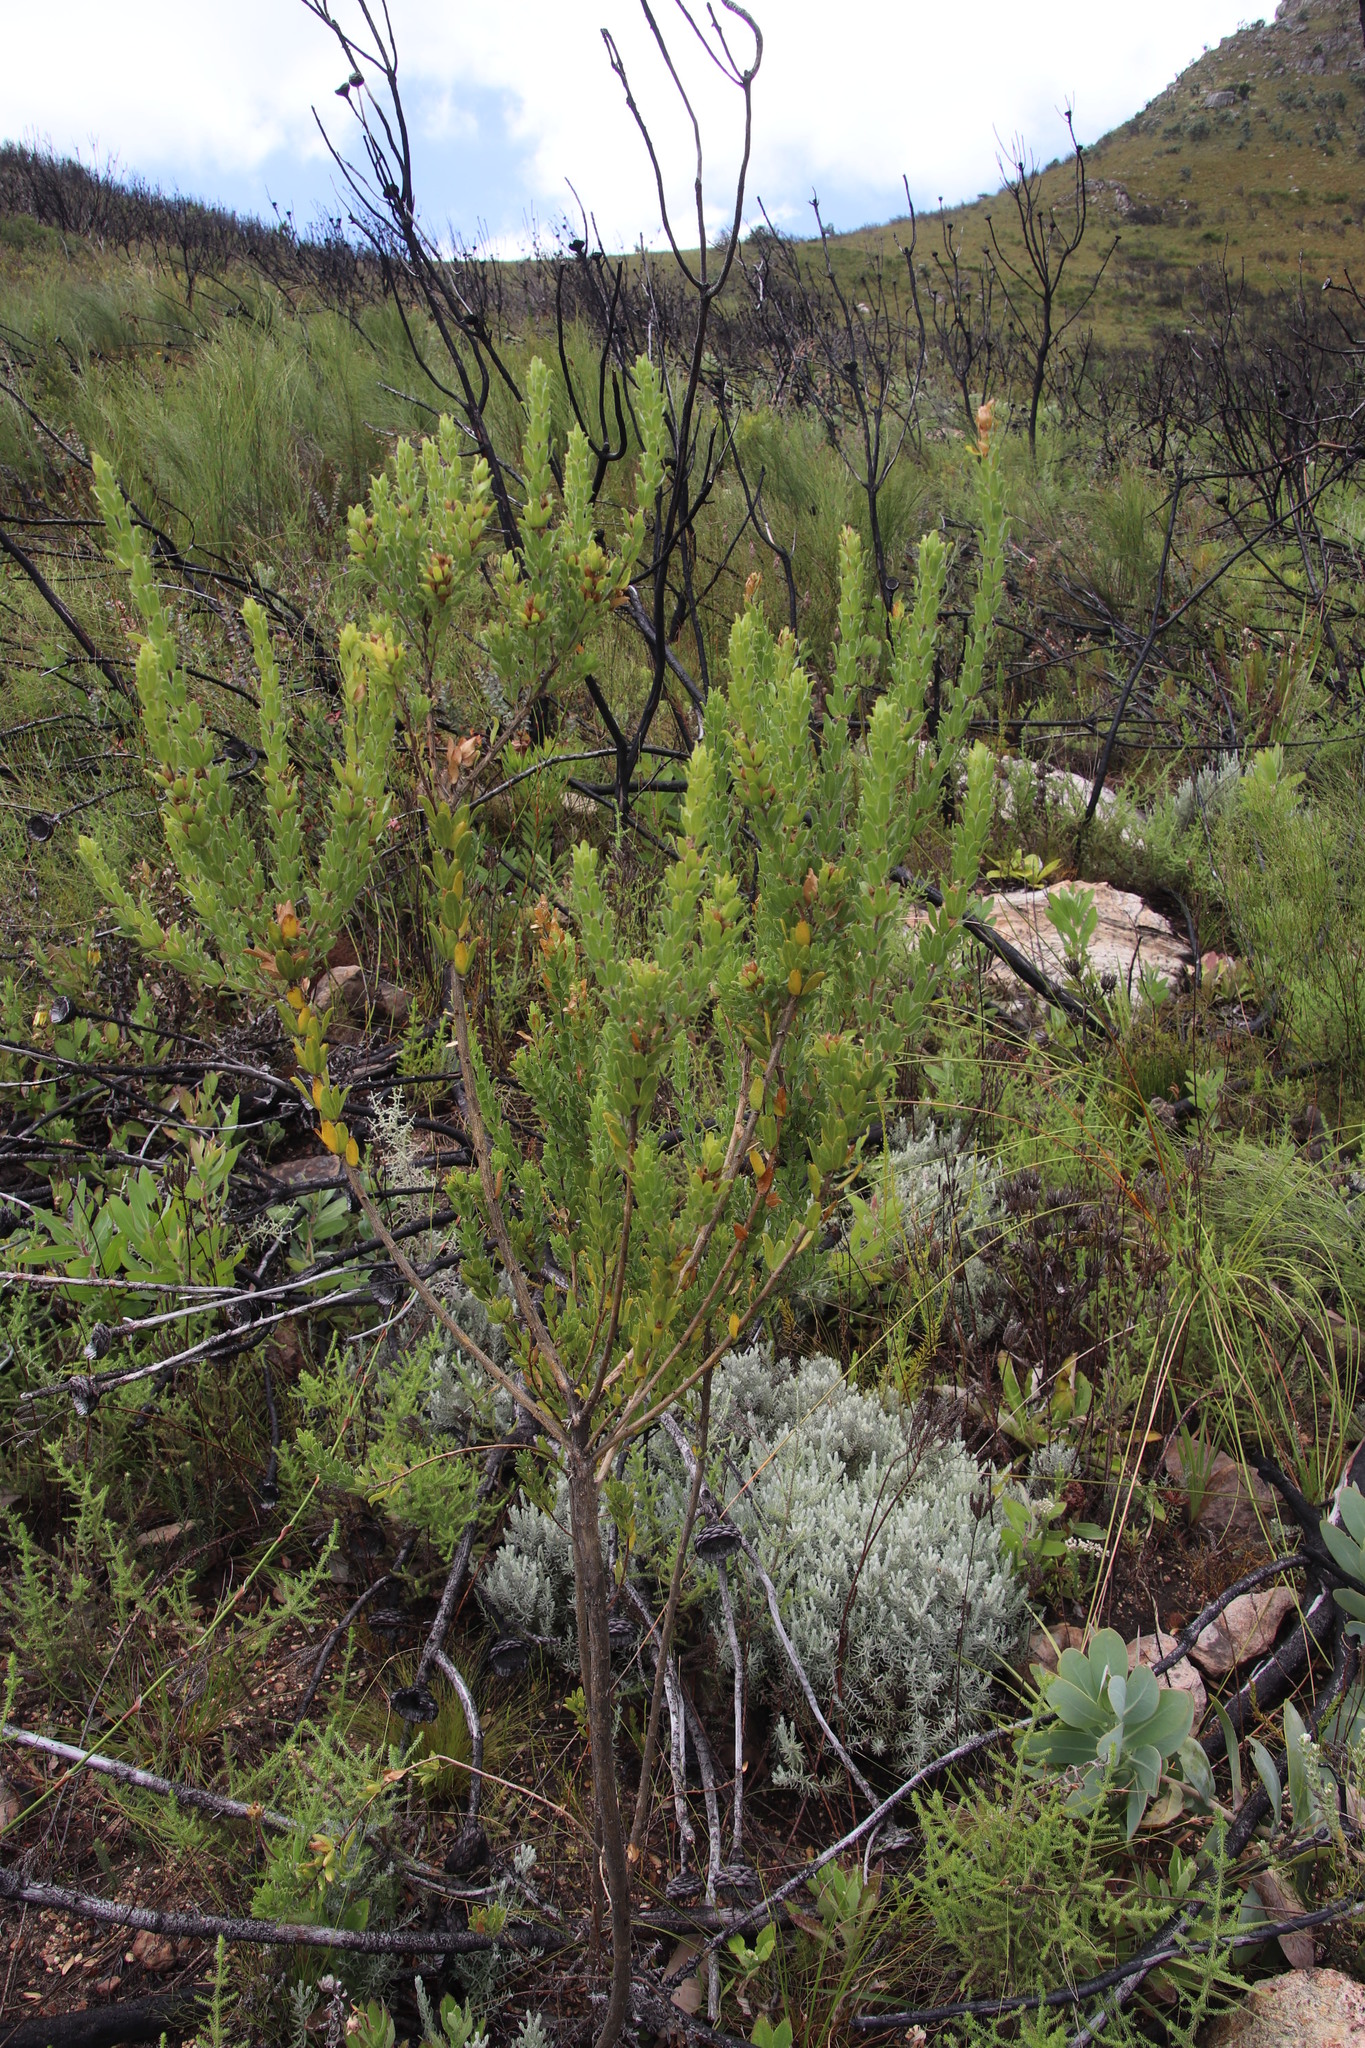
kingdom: Plantae
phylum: Tracheophyta
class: Magnoliopsida
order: Fabales
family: Fabaceae
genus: Psoralea
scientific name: Psoralea obliqua
